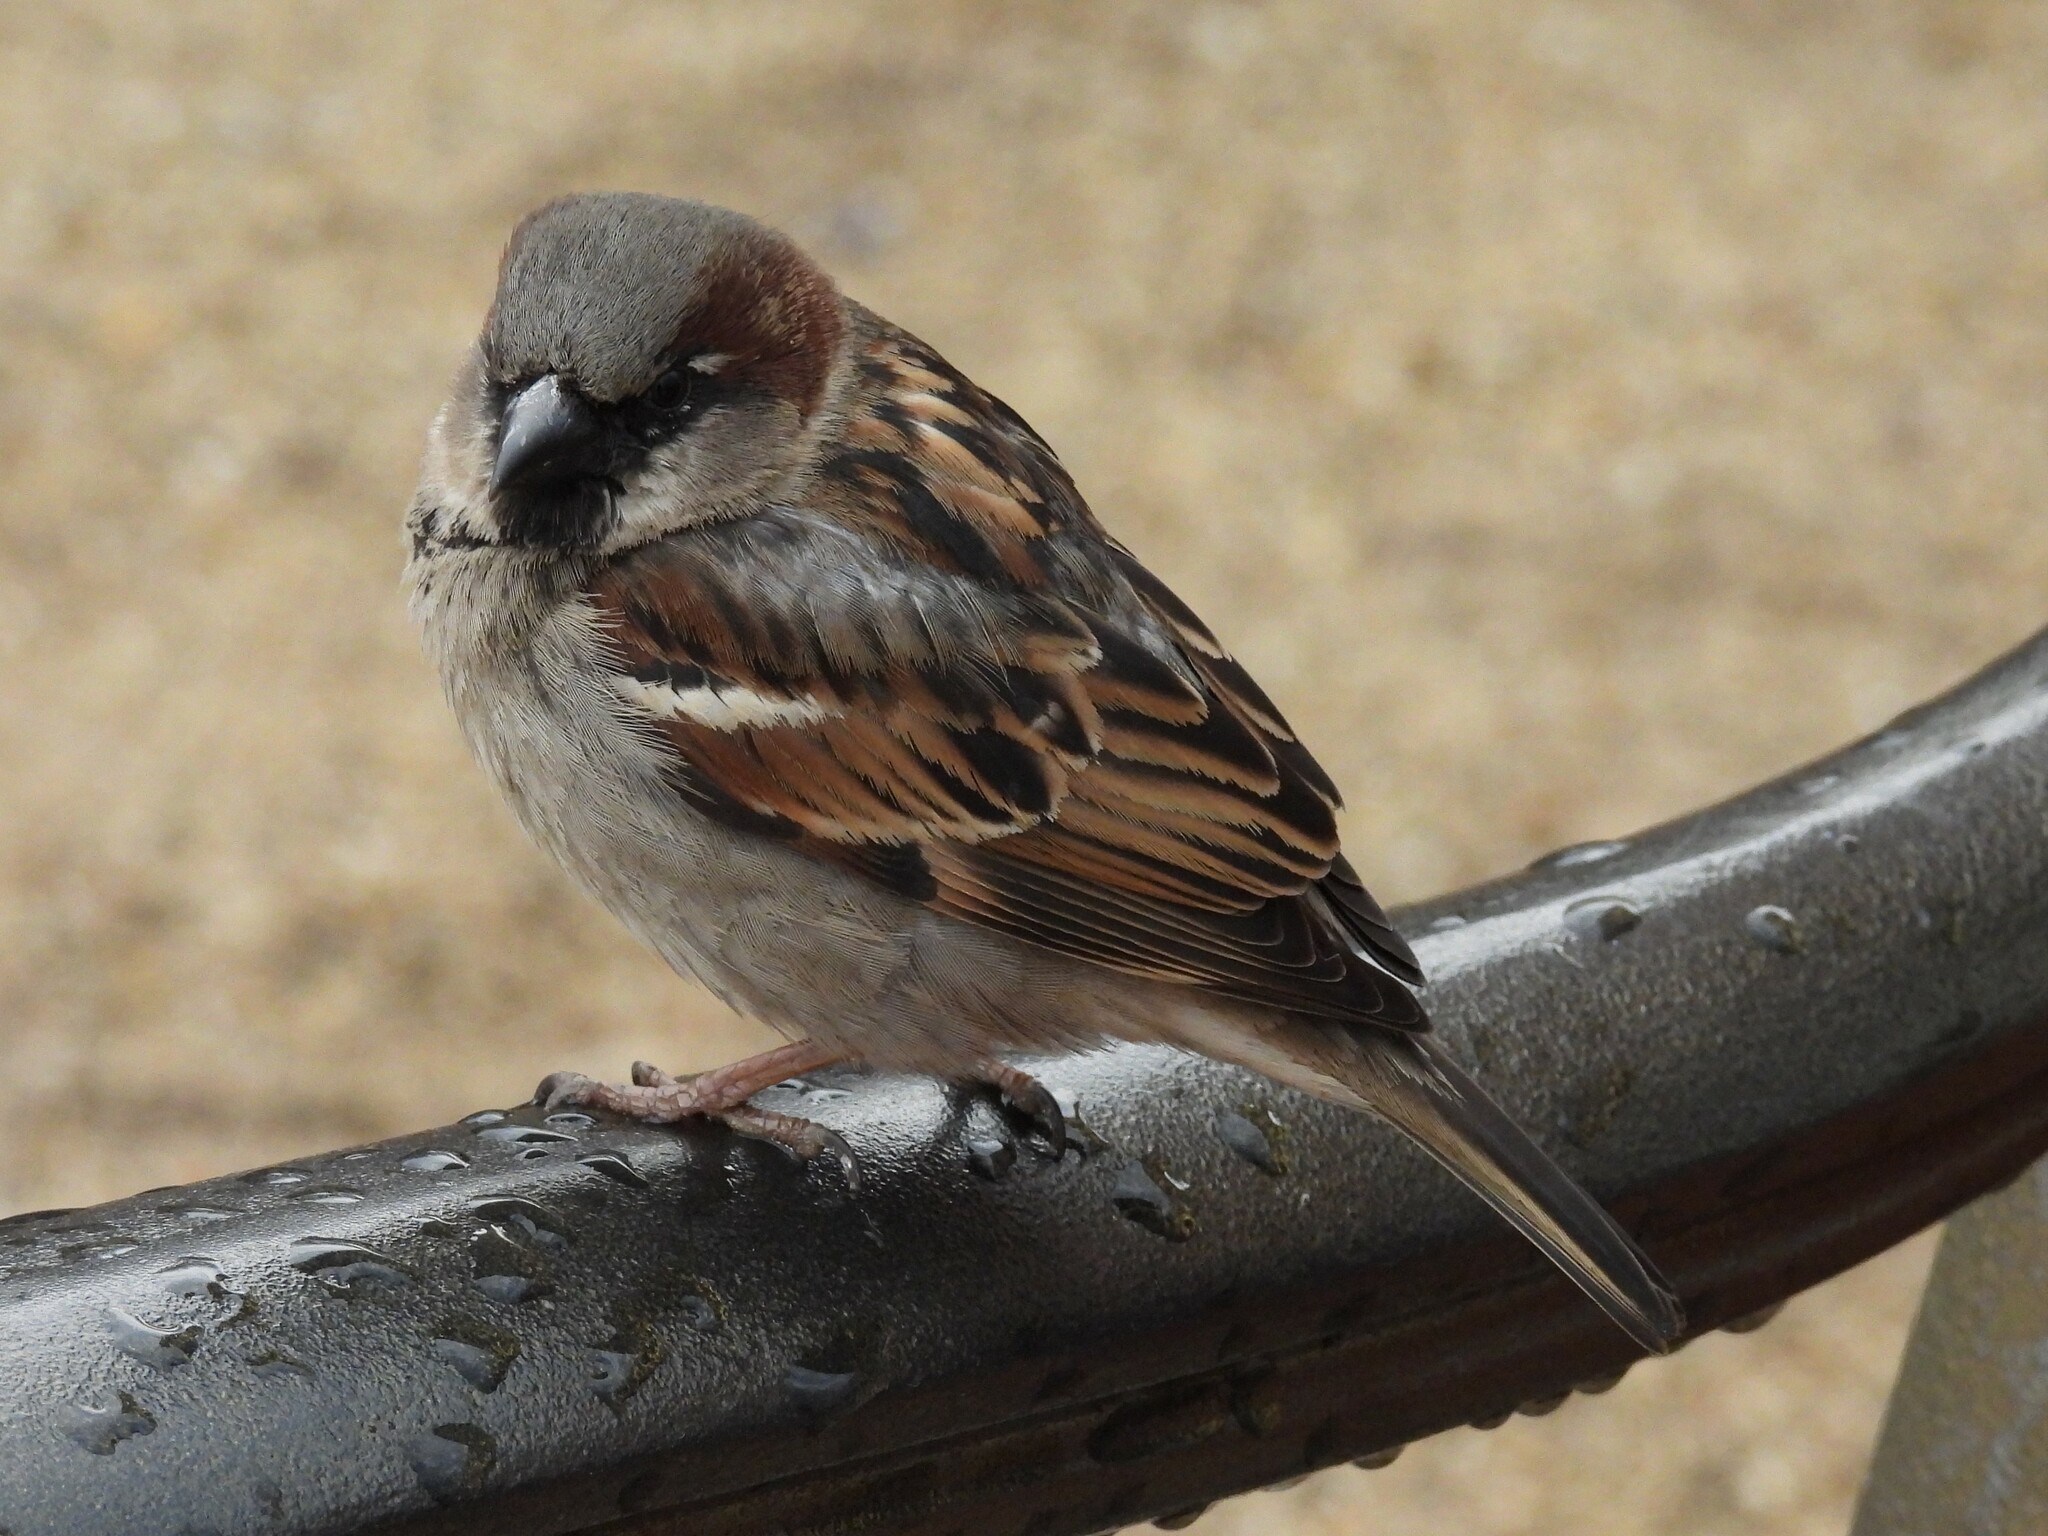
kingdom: Animalia
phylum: Chordata
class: Aves
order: Passeriformes
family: Passeridae
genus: Passer
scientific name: Passer domesticus
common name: House sparrow
